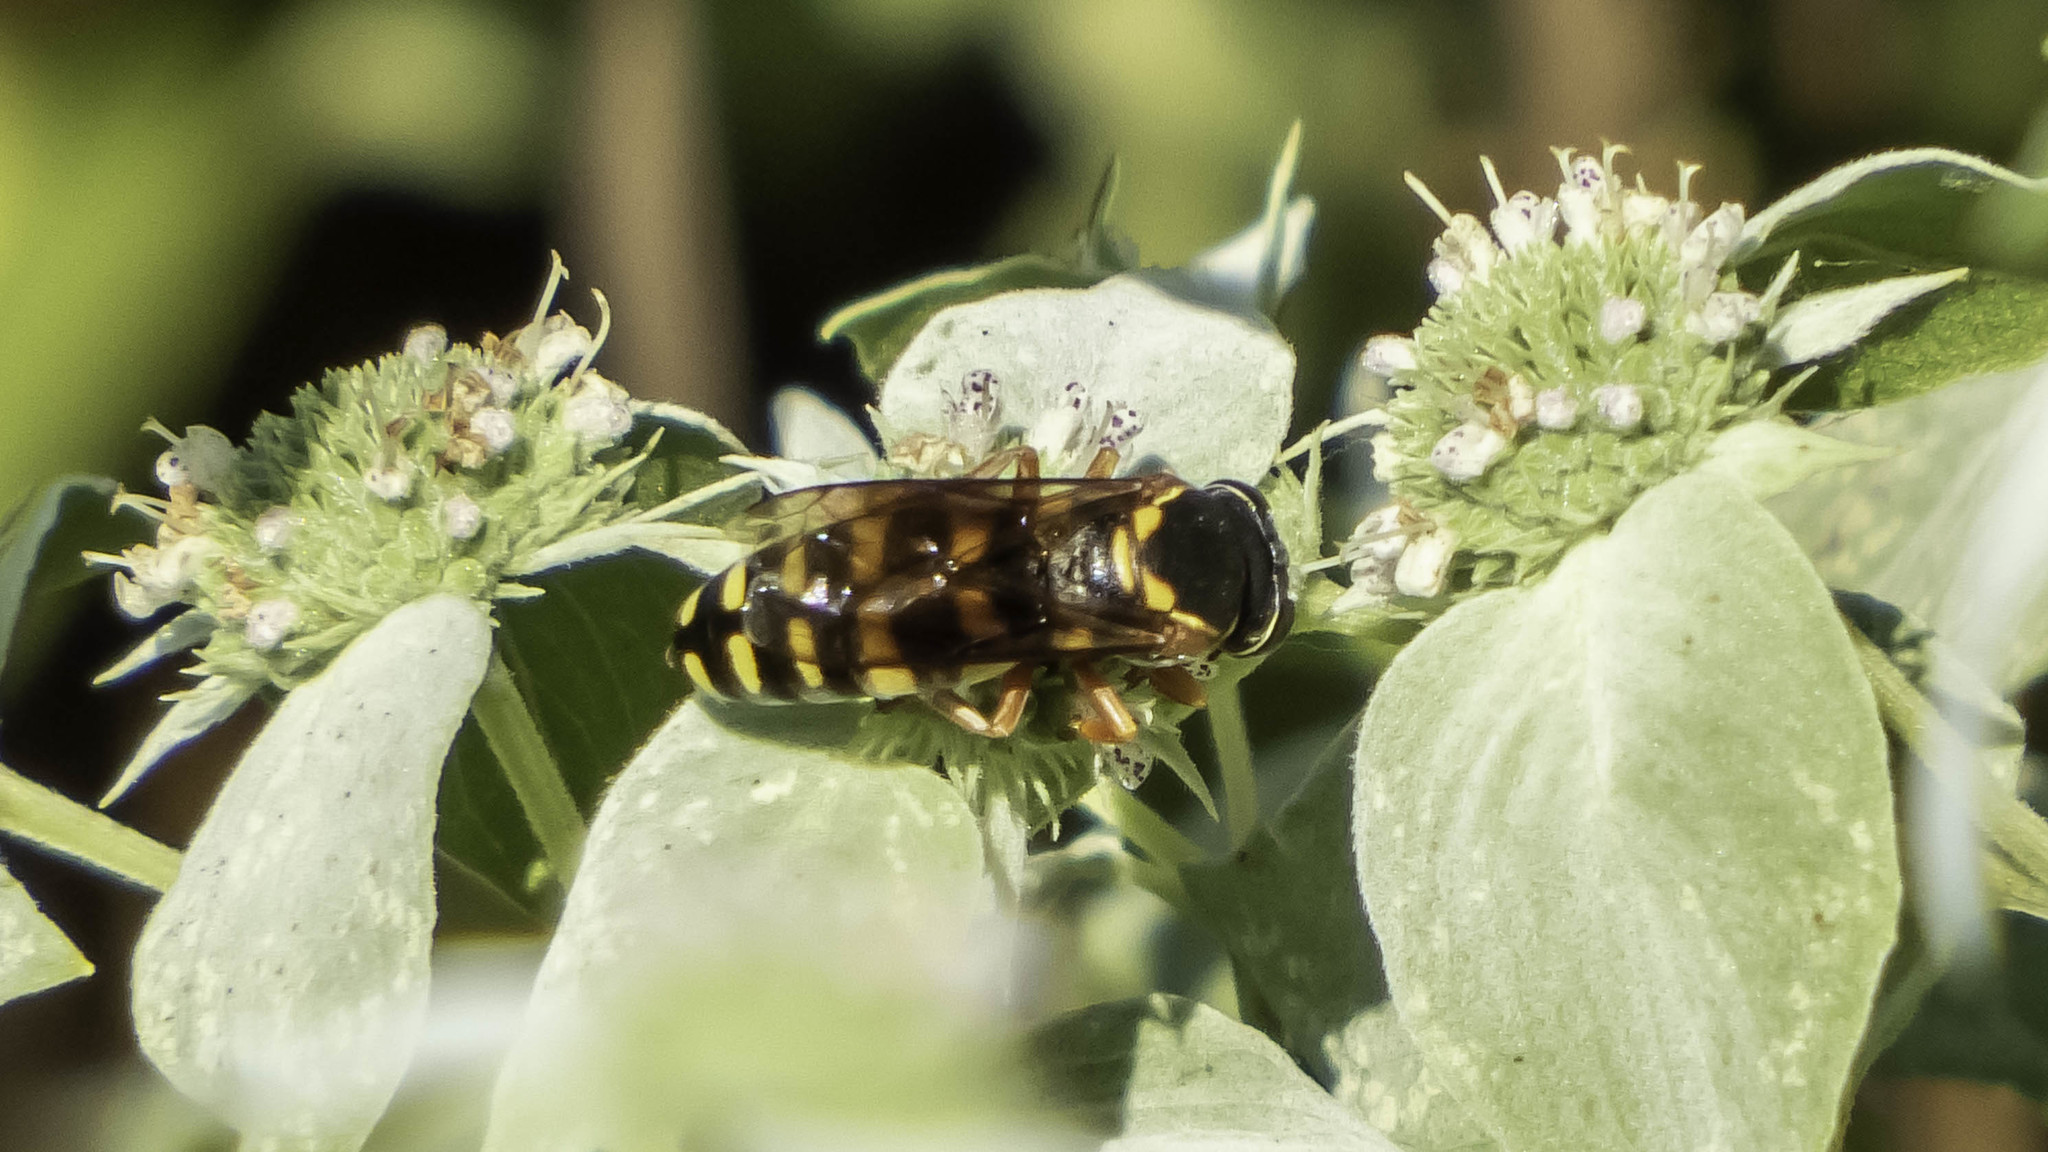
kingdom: Animalia
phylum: Arthropoda
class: Insecta
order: Hymenoptera
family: Crabronidae
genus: Bicyrtes
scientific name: Bicyrtes insidiatrix
